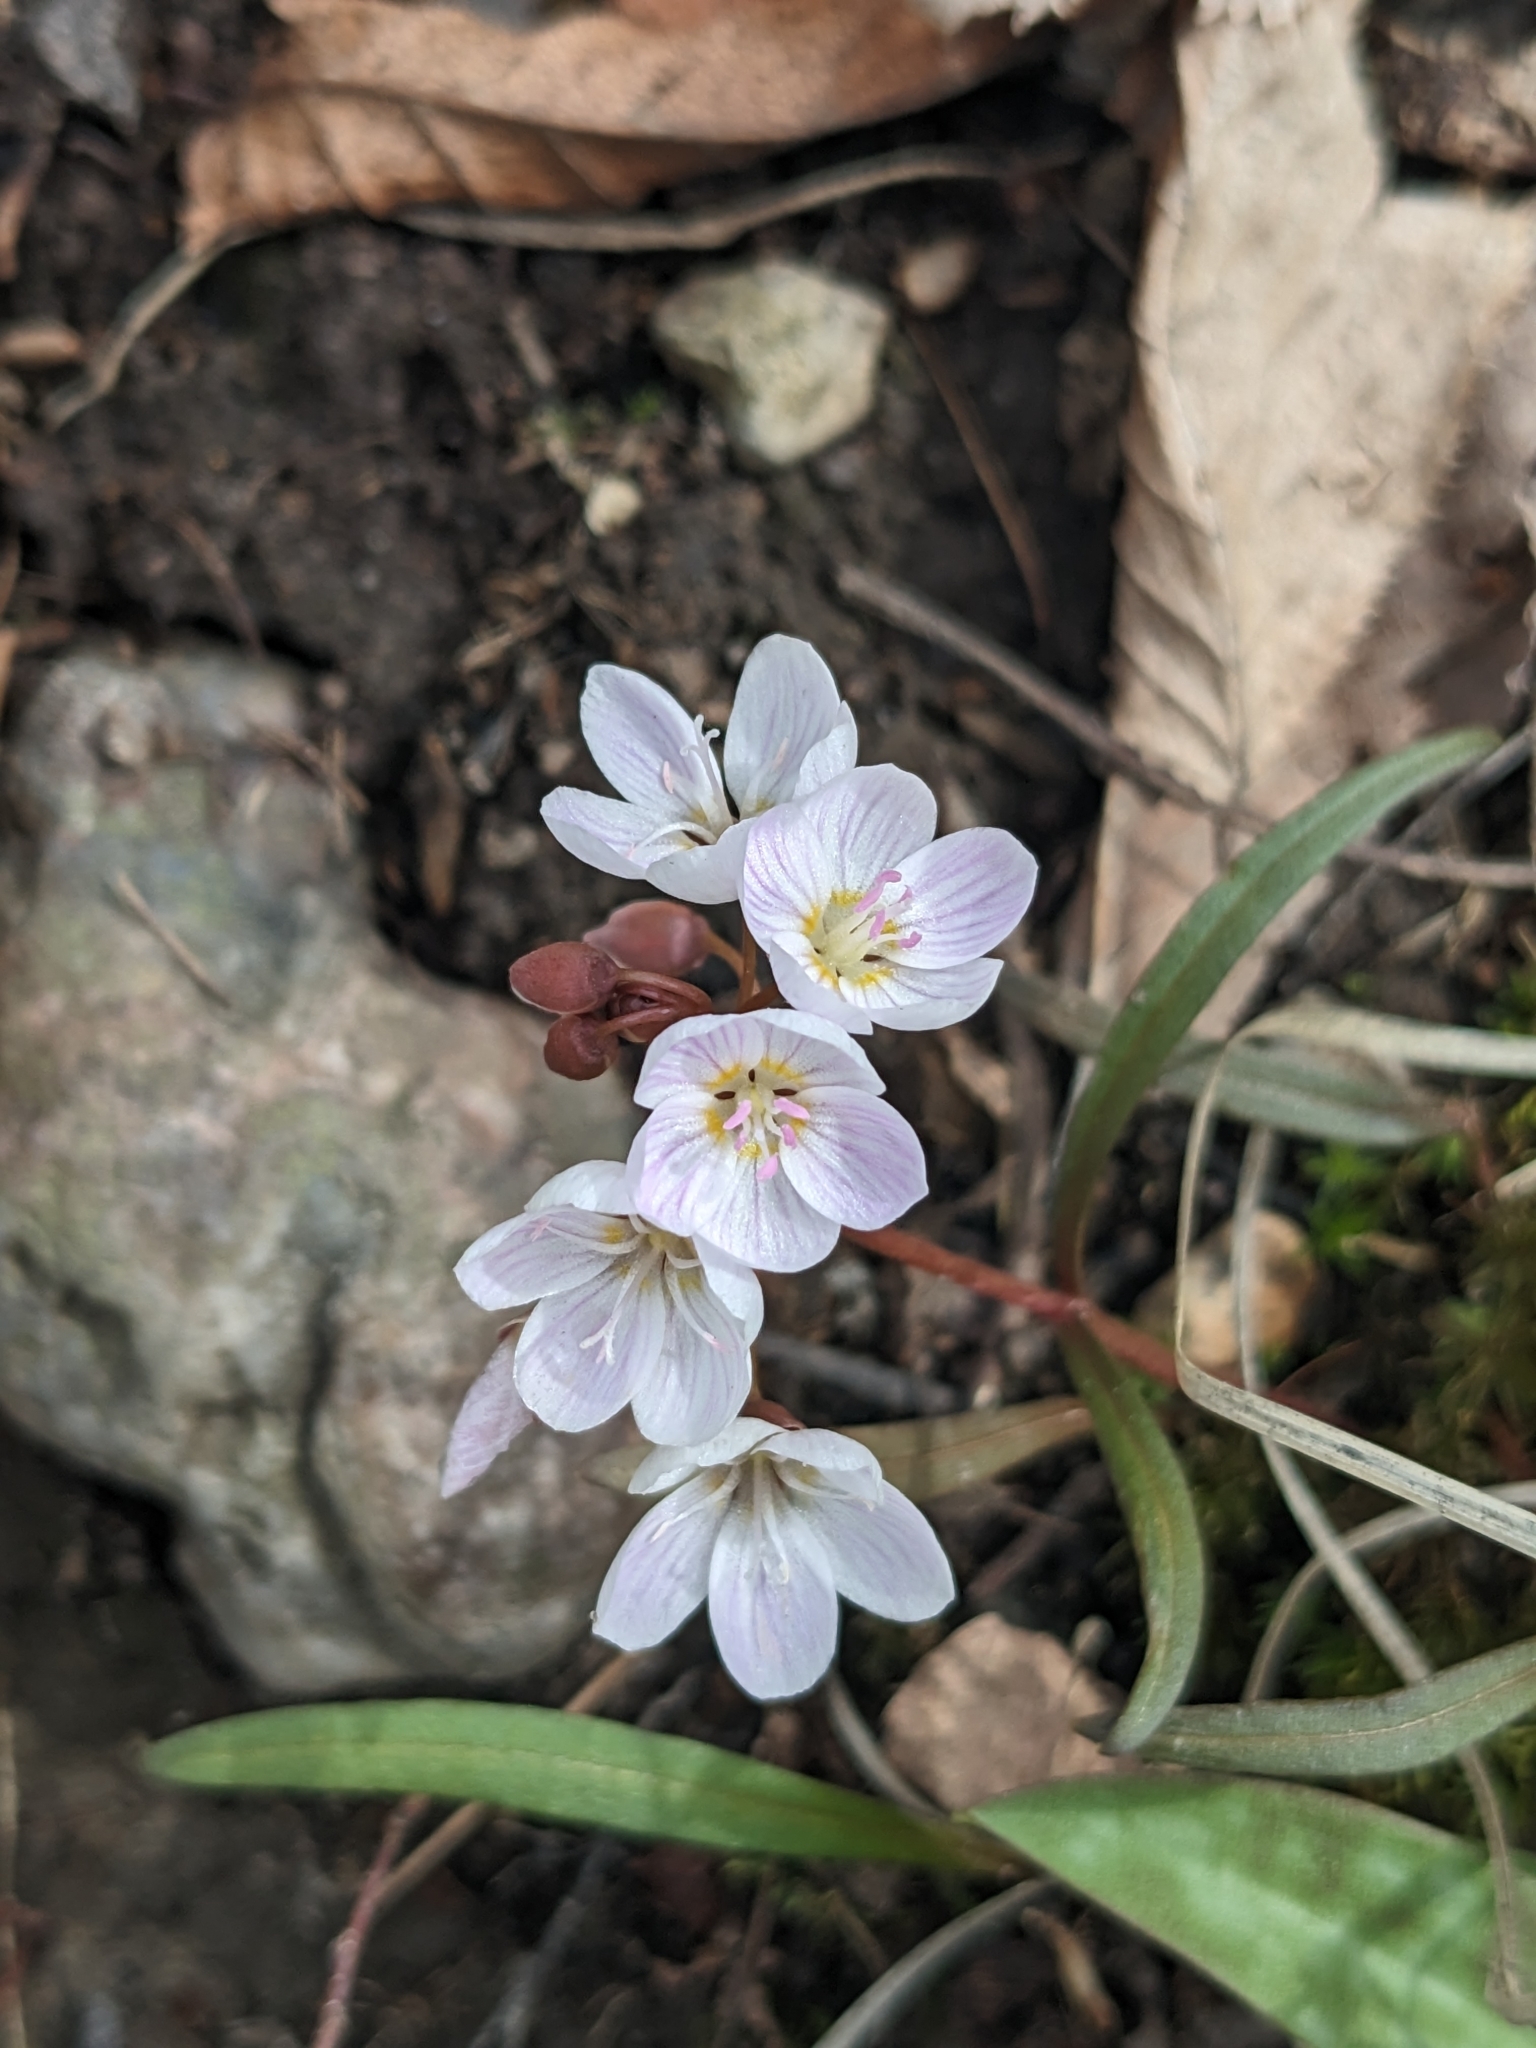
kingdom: Plantae
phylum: Tracheophyta
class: Magnoliopsida
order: Caryophyllales
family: Montiaceae
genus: Claytonia
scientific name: Claytonia virginica
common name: Virginia springbeauty
